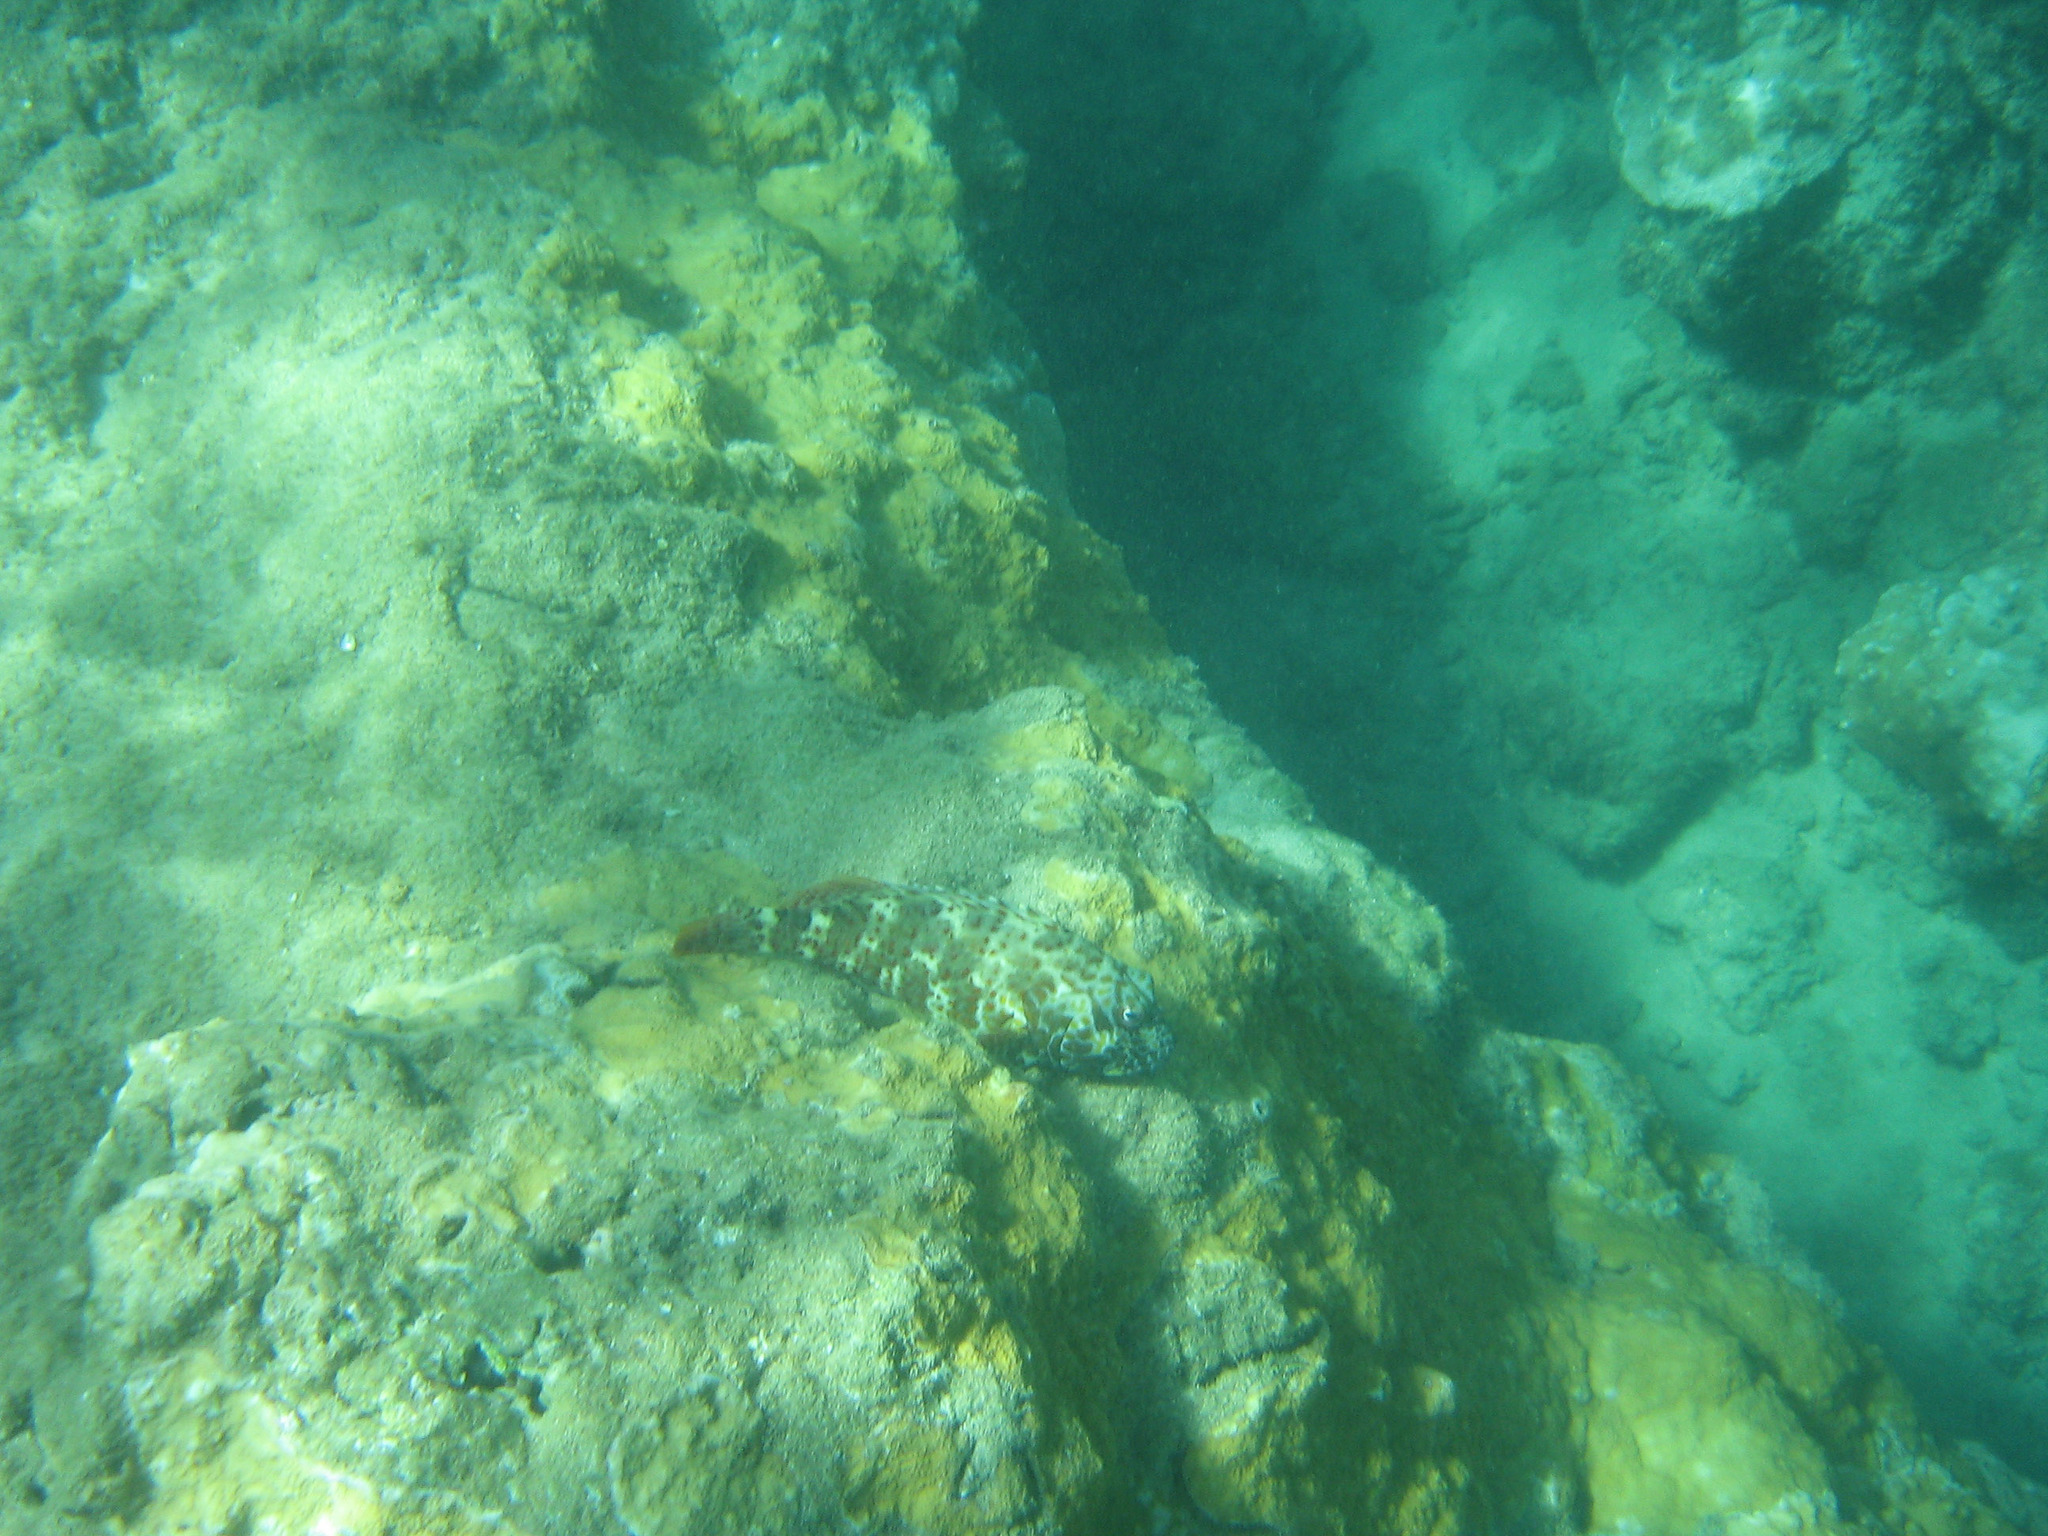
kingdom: Animalia
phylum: Chordata
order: Perciformes
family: Cirrhitidae
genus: Cirrhitus
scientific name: Cirrhitus pinnulatus
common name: Stocky hawkfish
